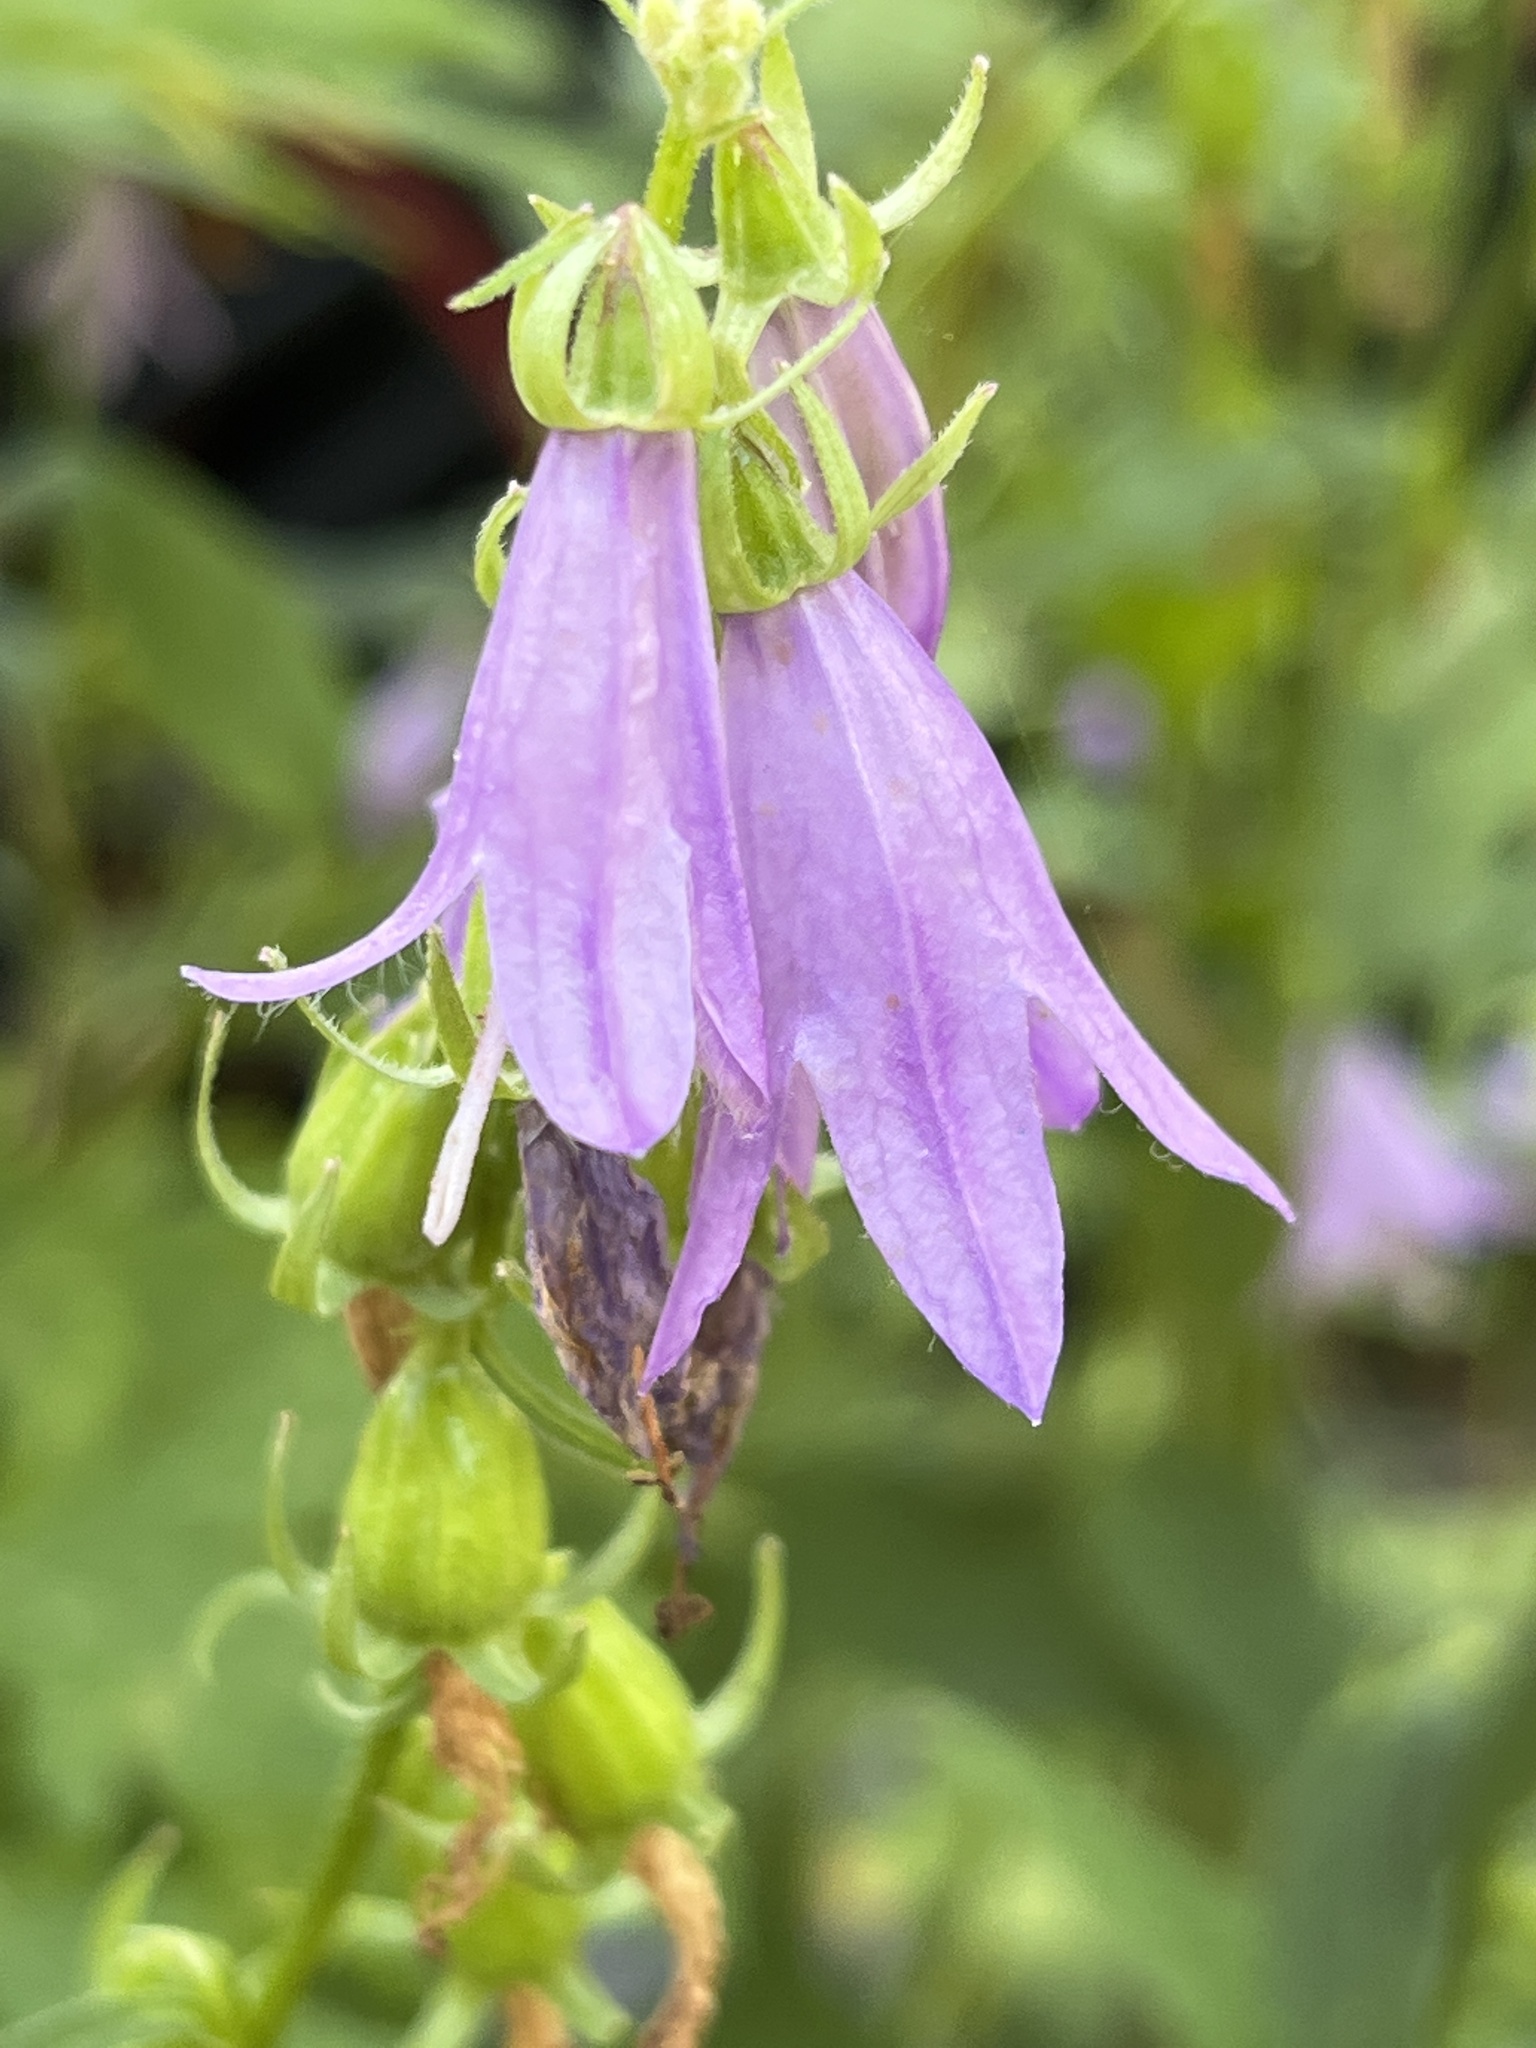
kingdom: Plantae
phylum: Tracheophyta
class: Magnoliopsida
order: Asterales
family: Campanulaceae
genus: Campanula
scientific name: Campanula rapunculoides
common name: Creeping bellflower
